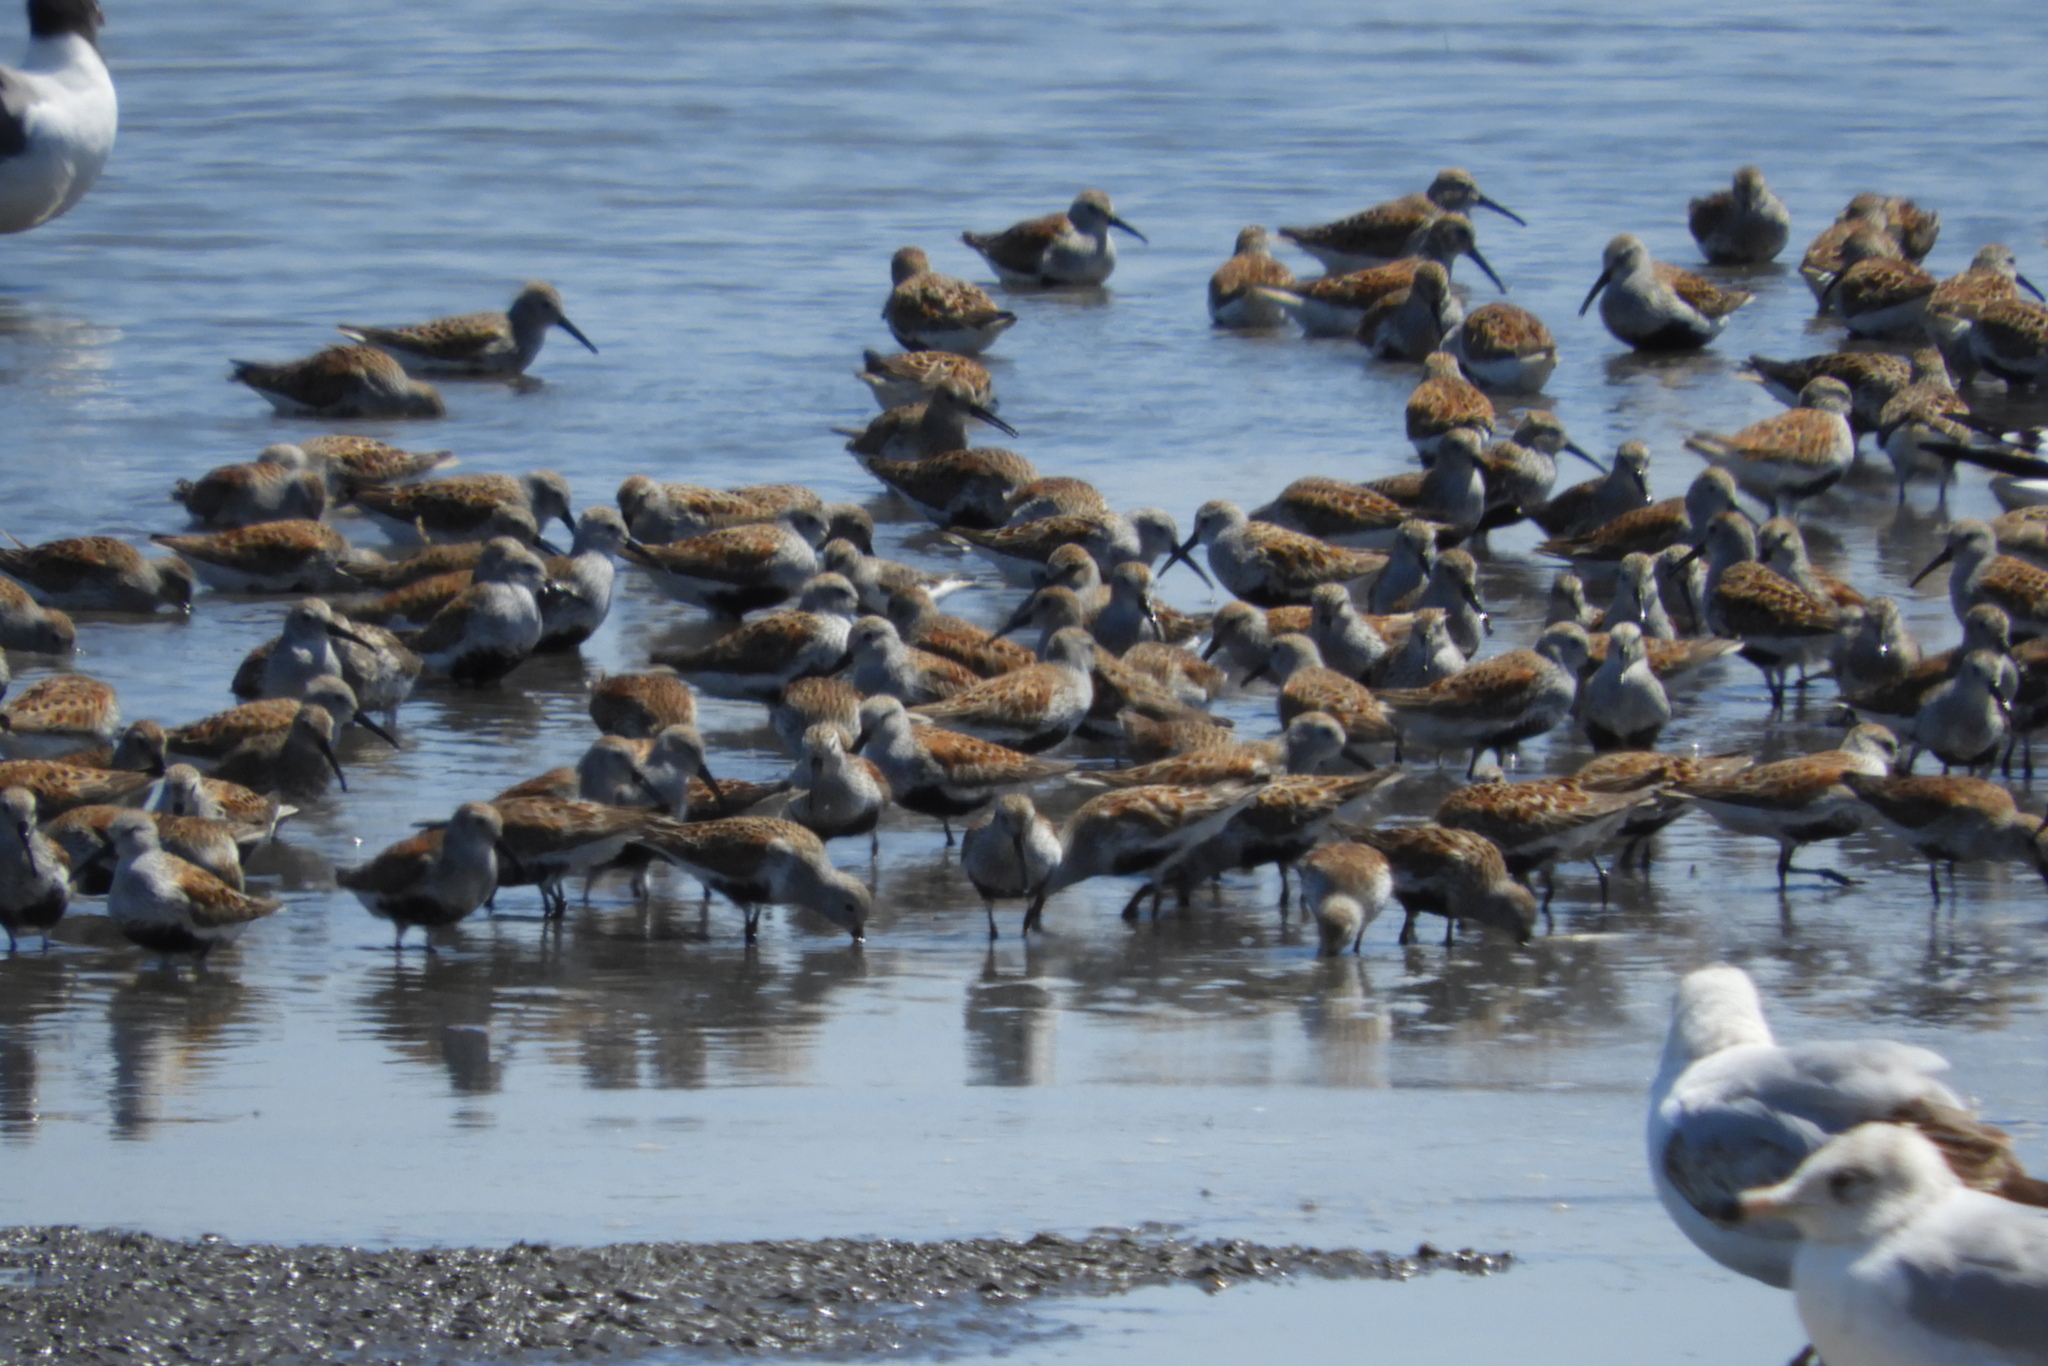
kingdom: Animalia
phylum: Chordata
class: Aves
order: Charadriiformes
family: Scolopacidae
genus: Calidris
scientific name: Calidris alpina
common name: Dunlin
